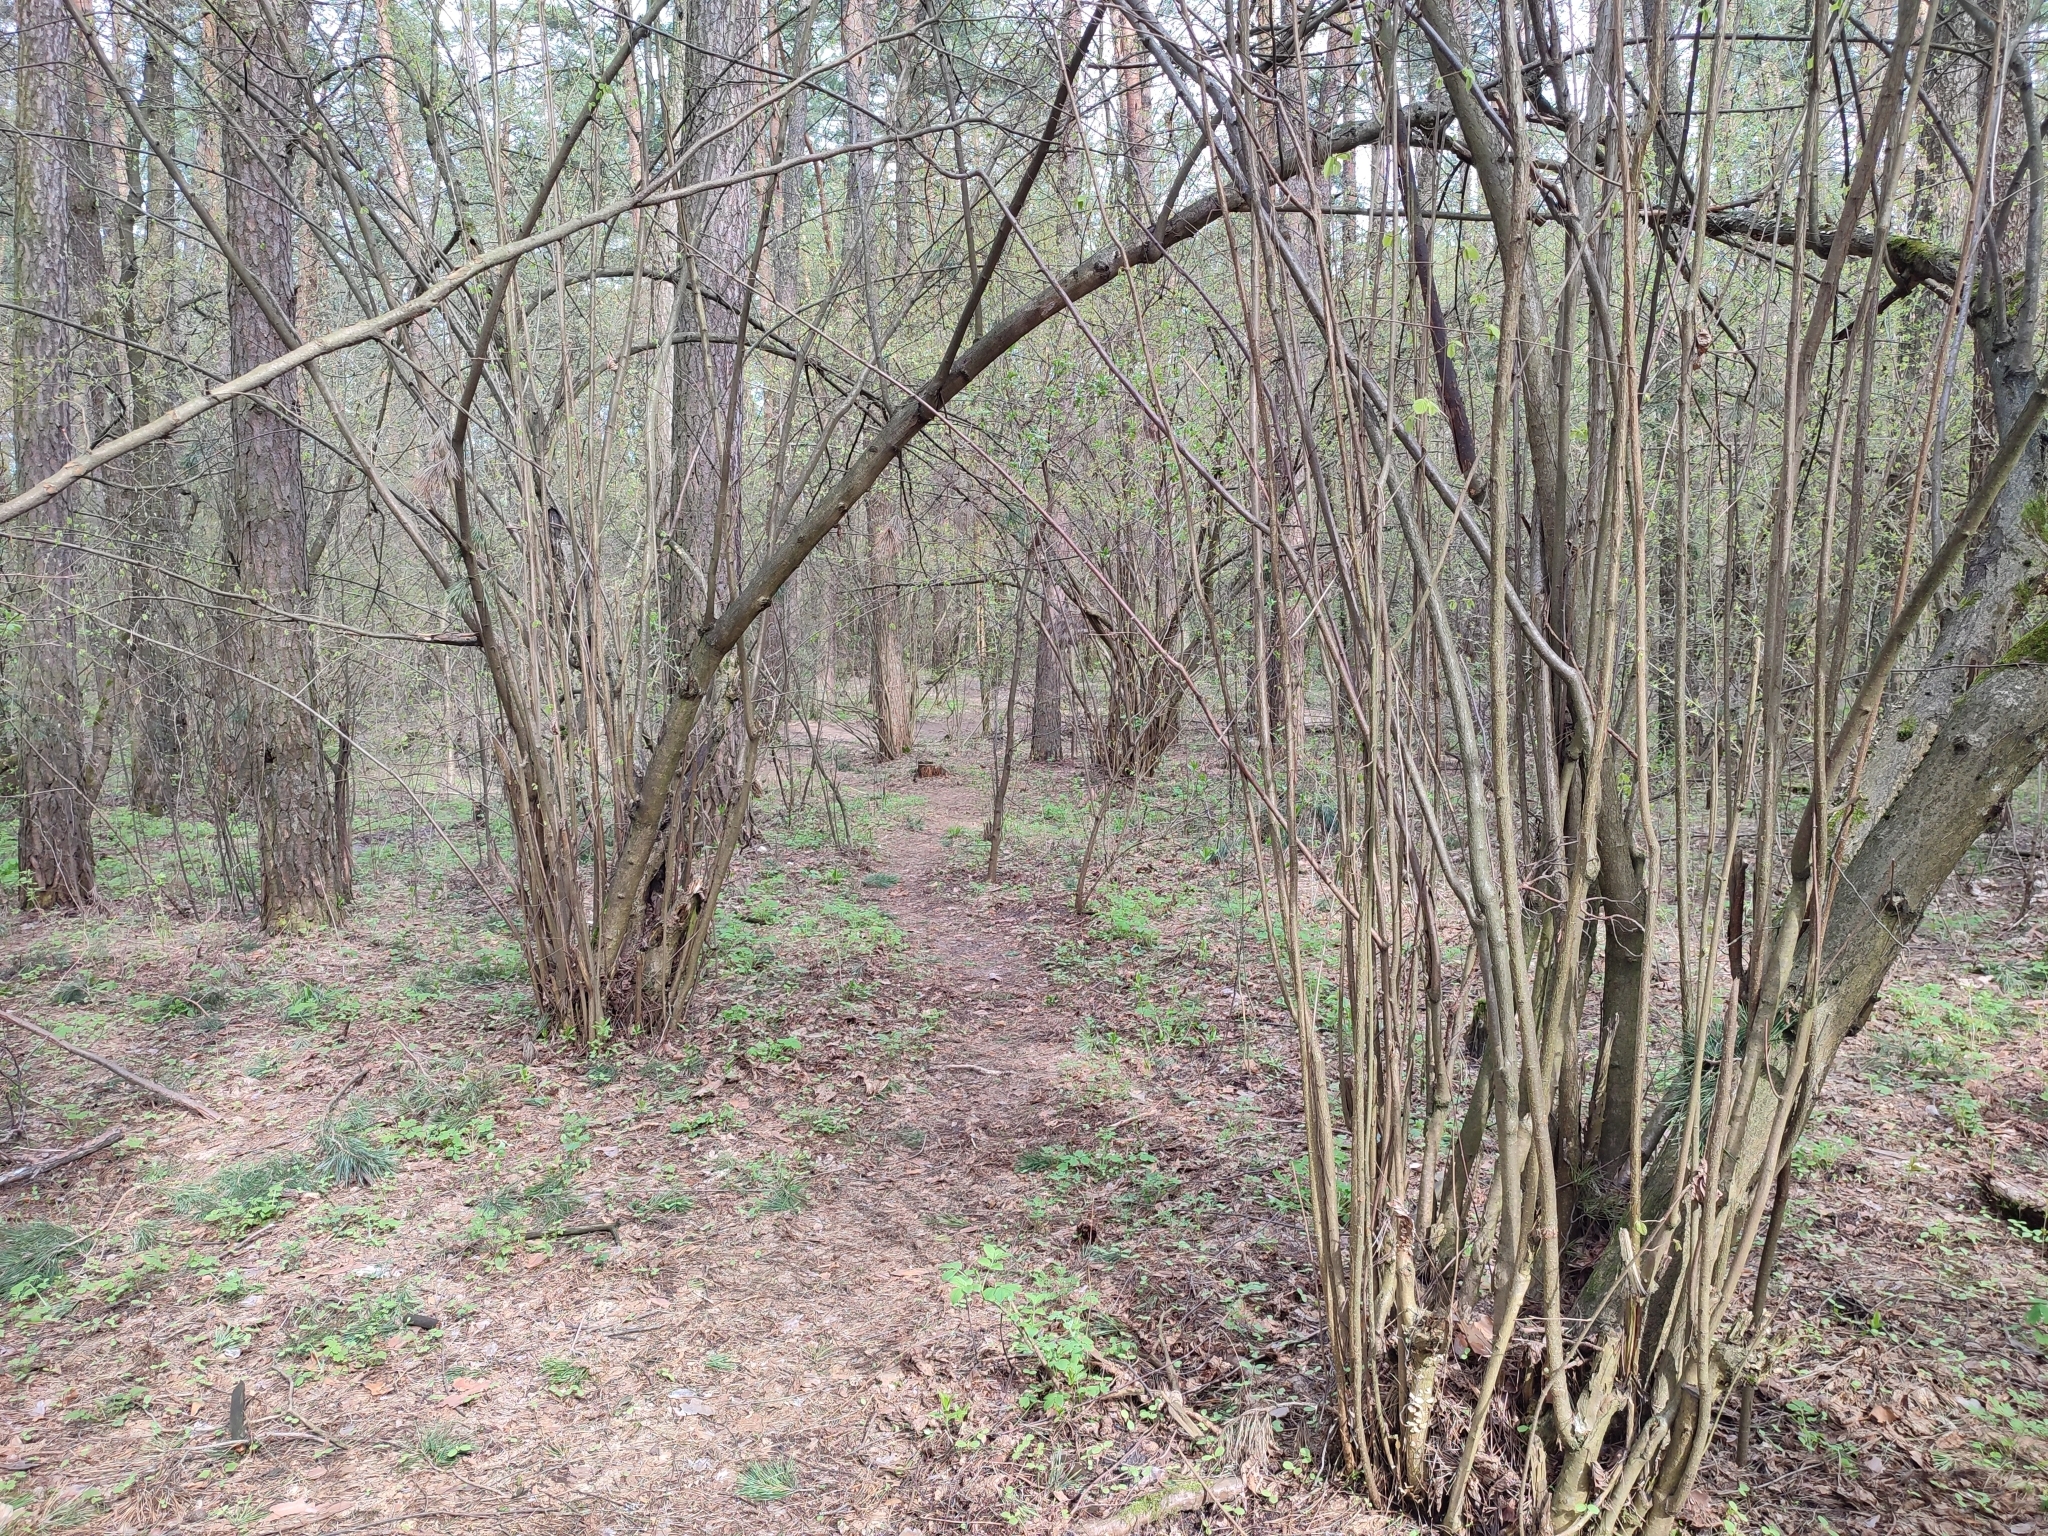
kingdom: Plantae
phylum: Tracheophyta
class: Magnoliopsida
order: Fagales
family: Betulaceae
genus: Corylus
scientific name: Corylus avellana
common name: European hazel
